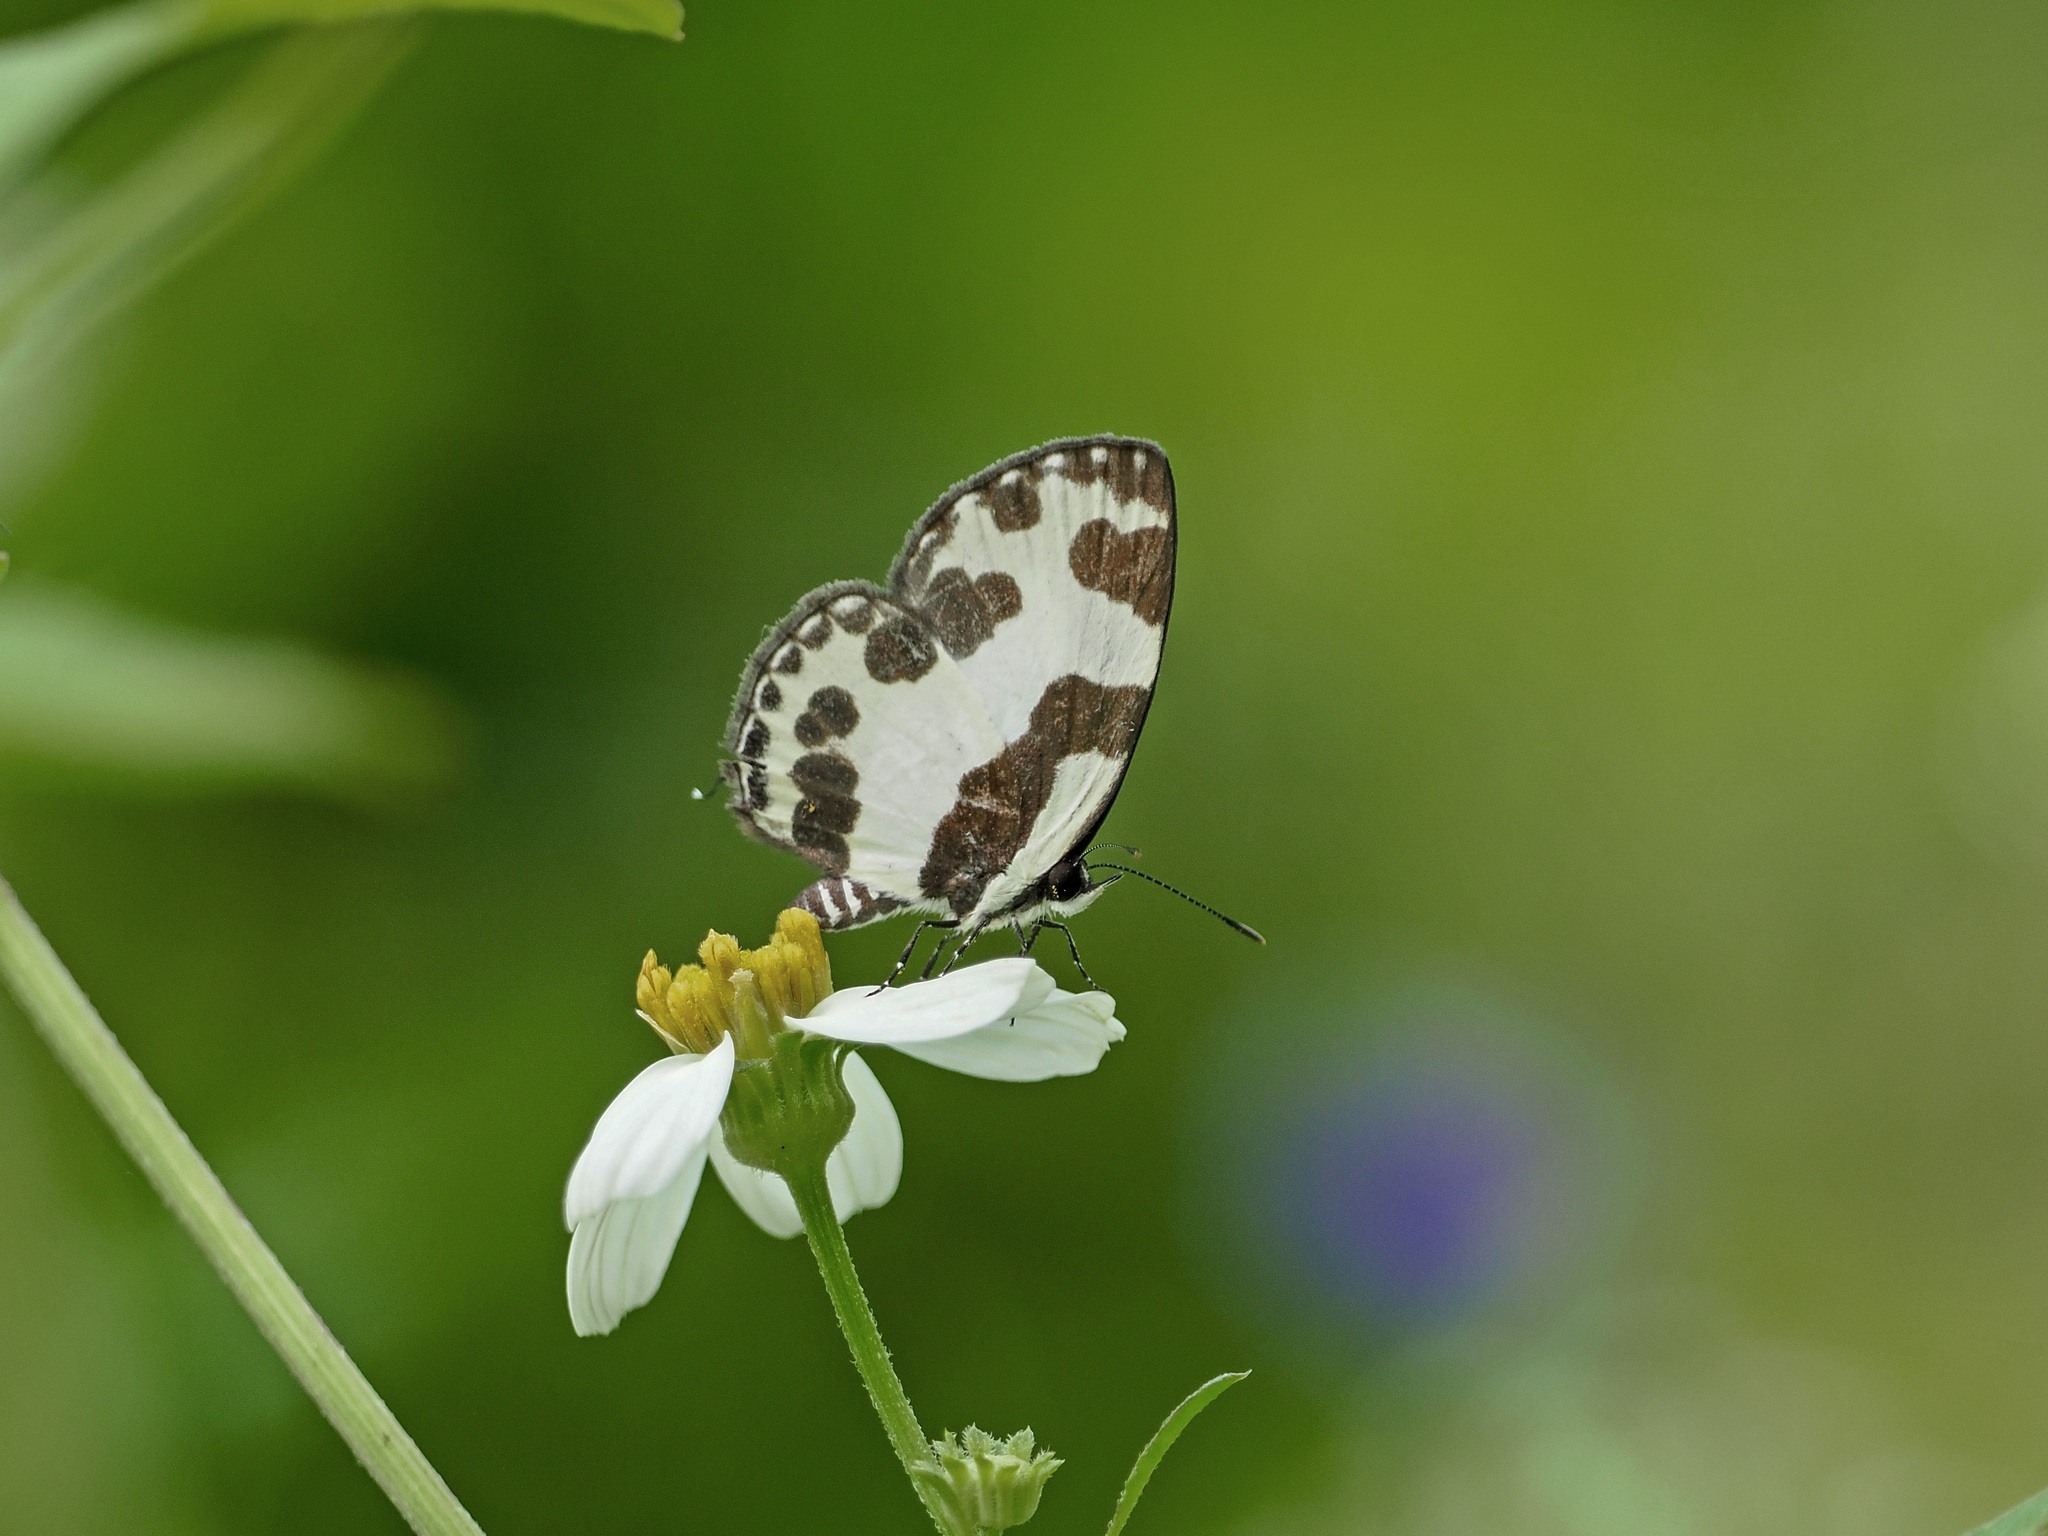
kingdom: Animalia
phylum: Arthropoda
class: Insecta
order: Lepidoptera
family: Lycaenidae
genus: Caleta
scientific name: Caleta elna
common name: Elbowed pierrot
